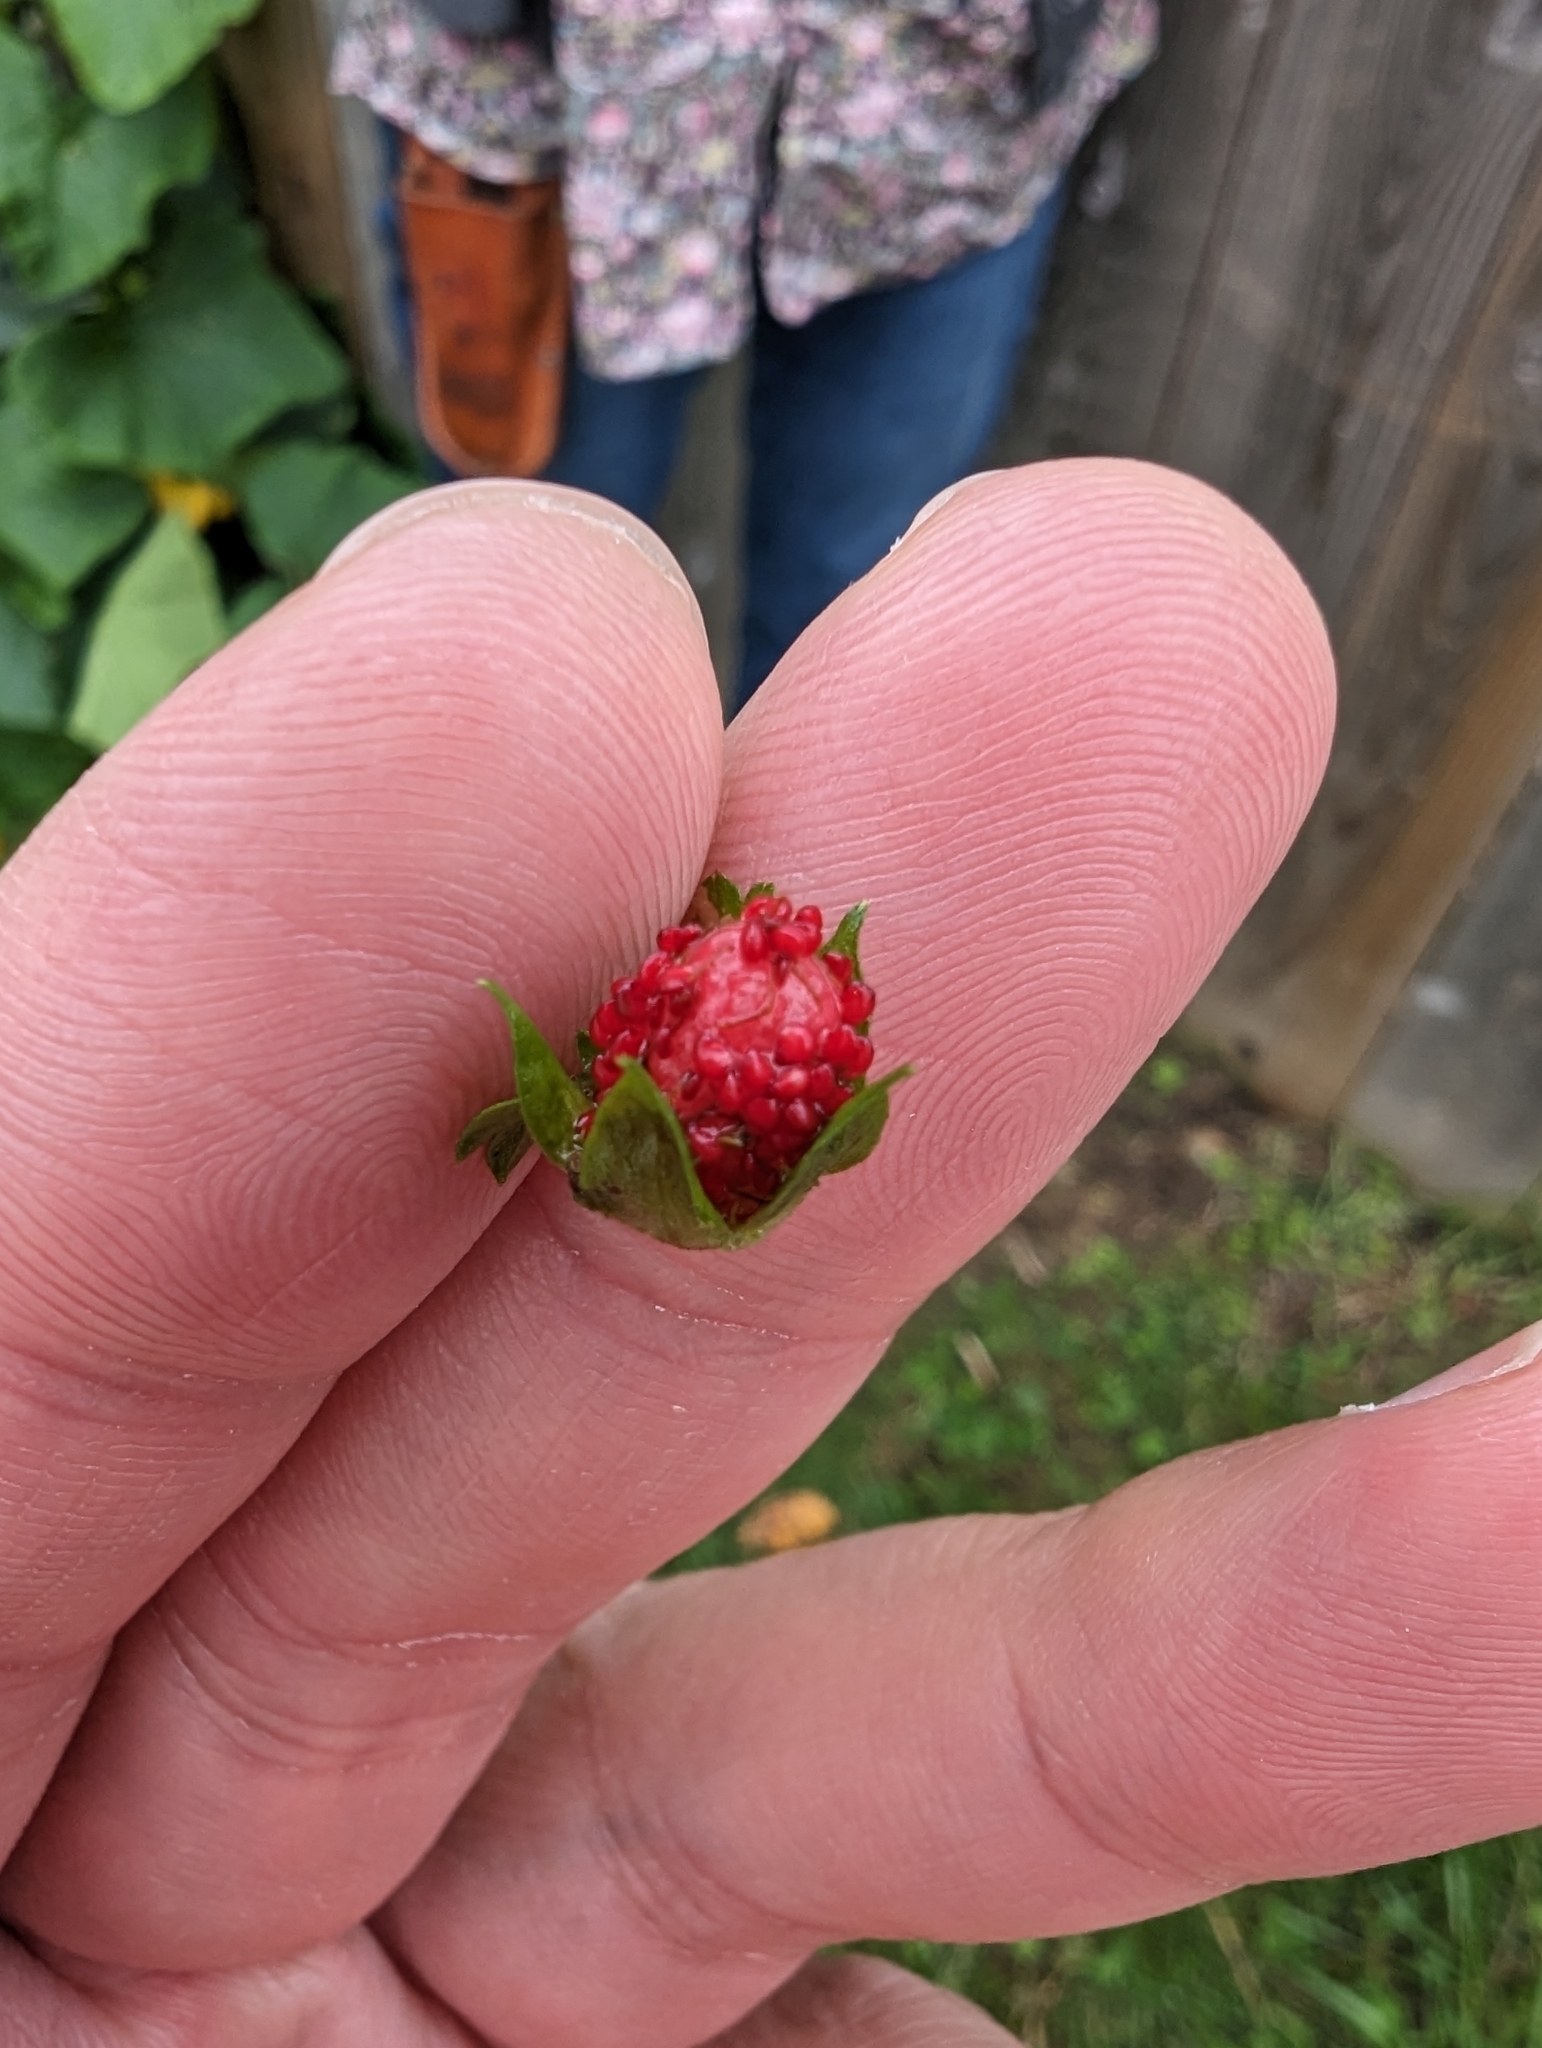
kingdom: Plantae
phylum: Tracheophyta
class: Magnoliopsida
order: Rosales
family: Rosaceae
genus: Potentilla
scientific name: Potentilla indica
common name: Yellow-flowered strawberry
